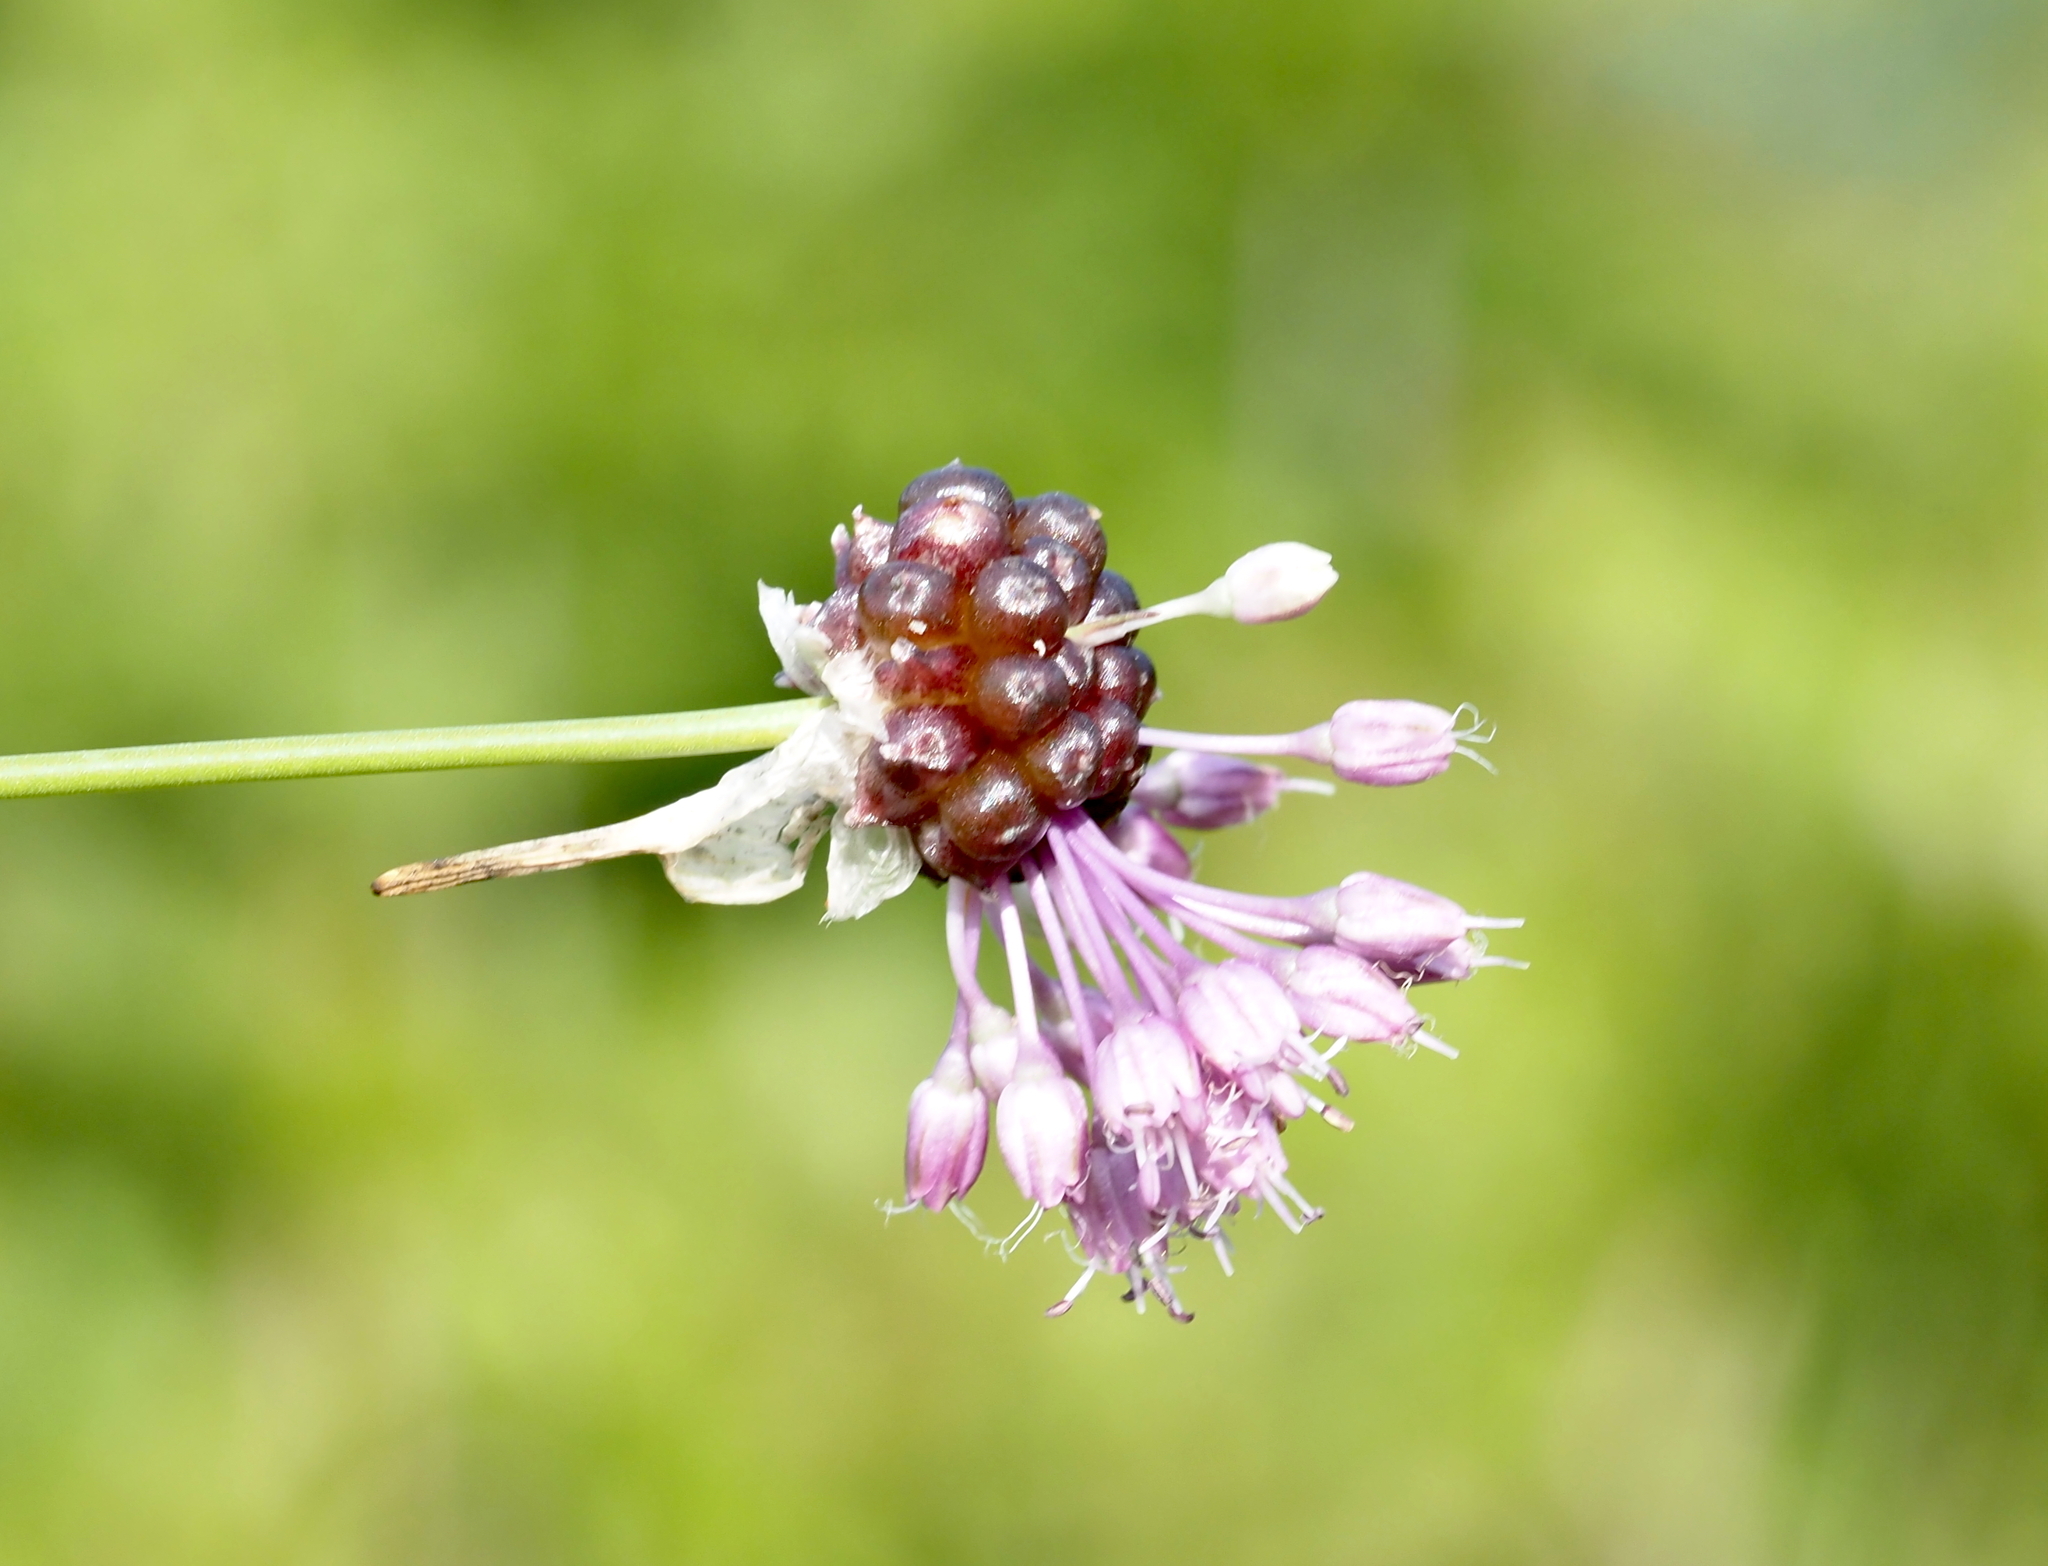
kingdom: Plantae
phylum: Tracheophyta
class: Liliopsida
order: Asparagales
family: Amaryllidaceae
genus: Allium
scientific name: Allium vineale
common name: Crow garlic
